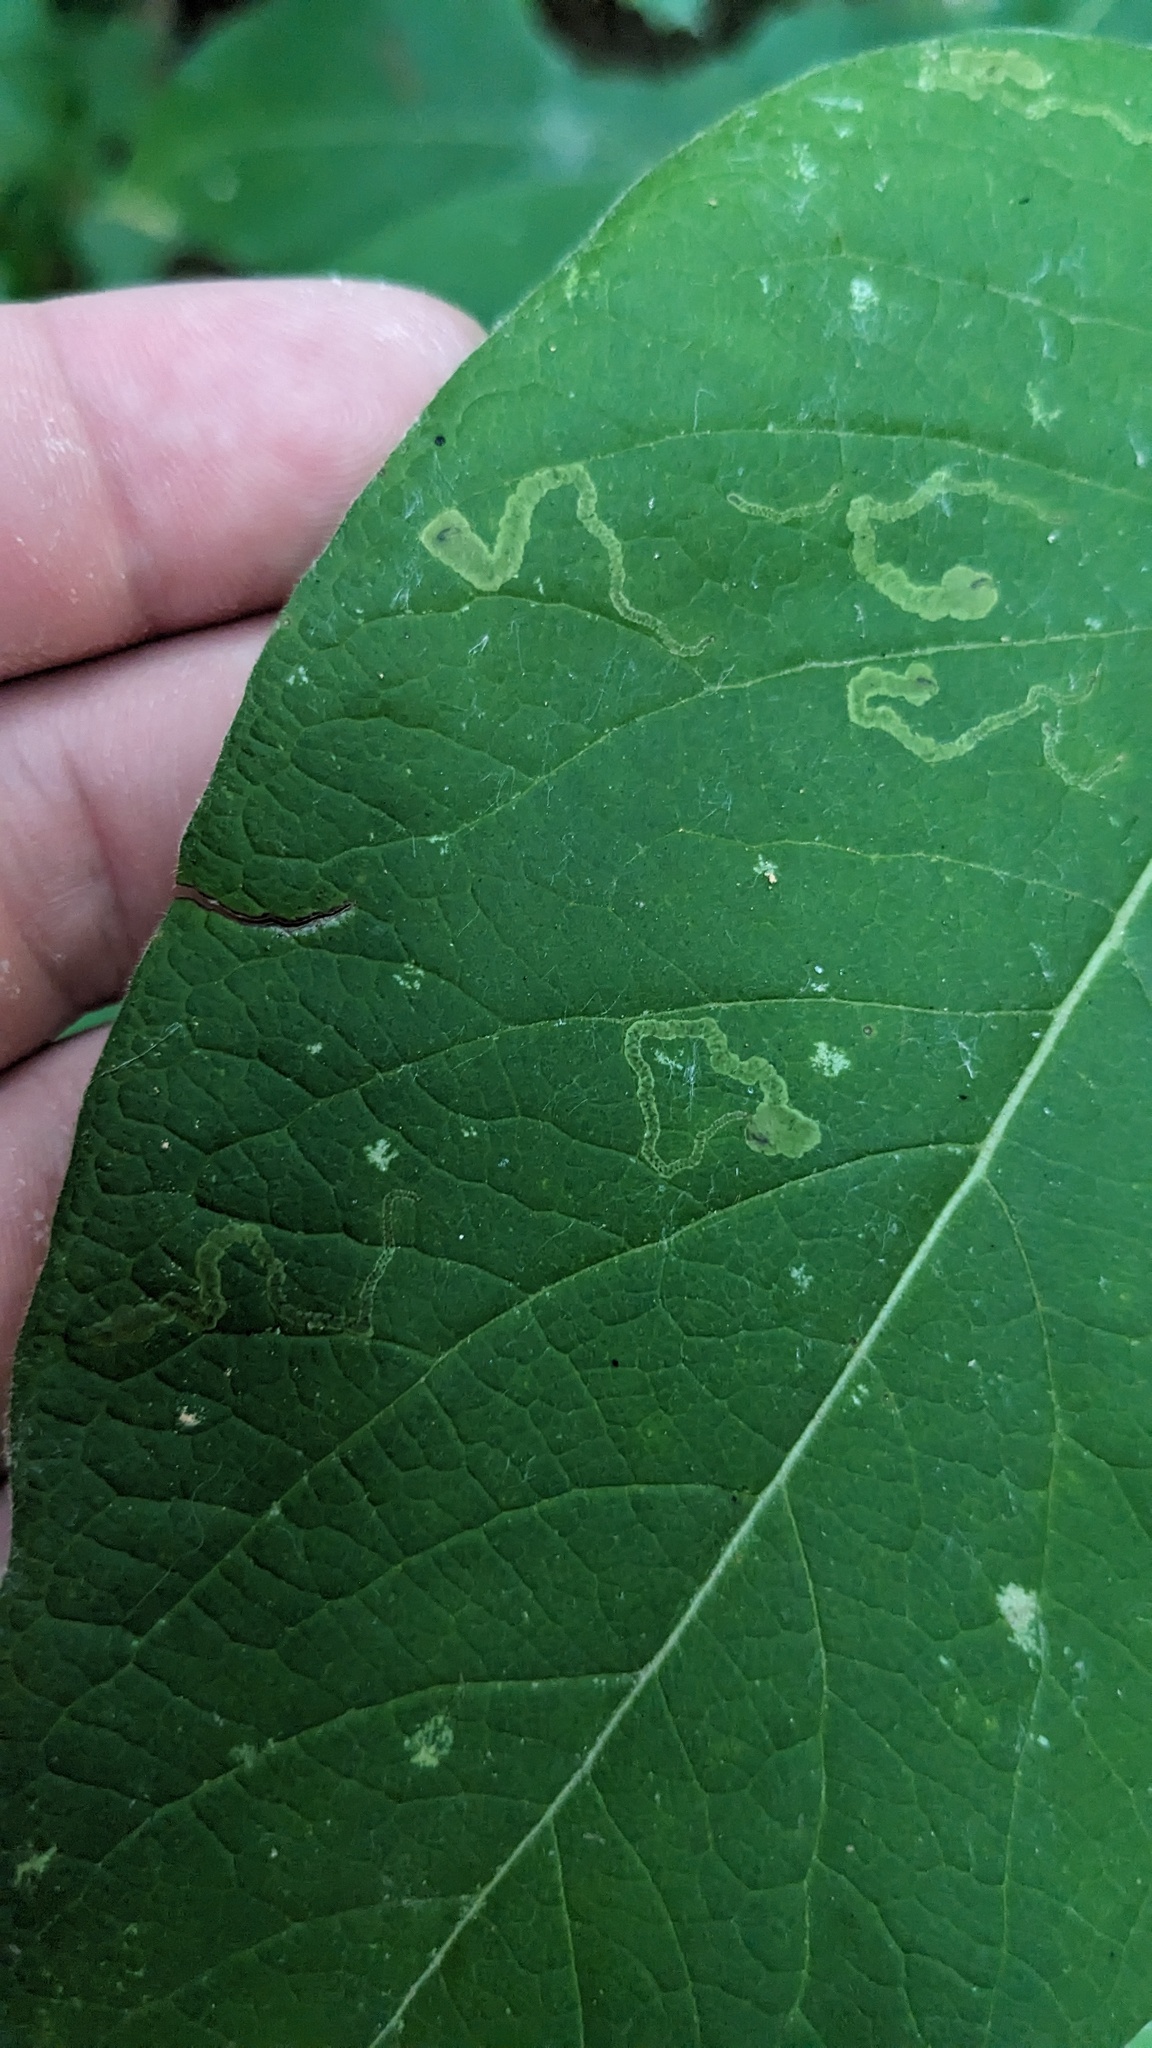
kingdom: Animalia
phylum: Arthropoda
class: Insecta
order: Diptera
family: Agromyzidae
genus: Aulagromyza
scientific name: Aulagromyza orbitalis
